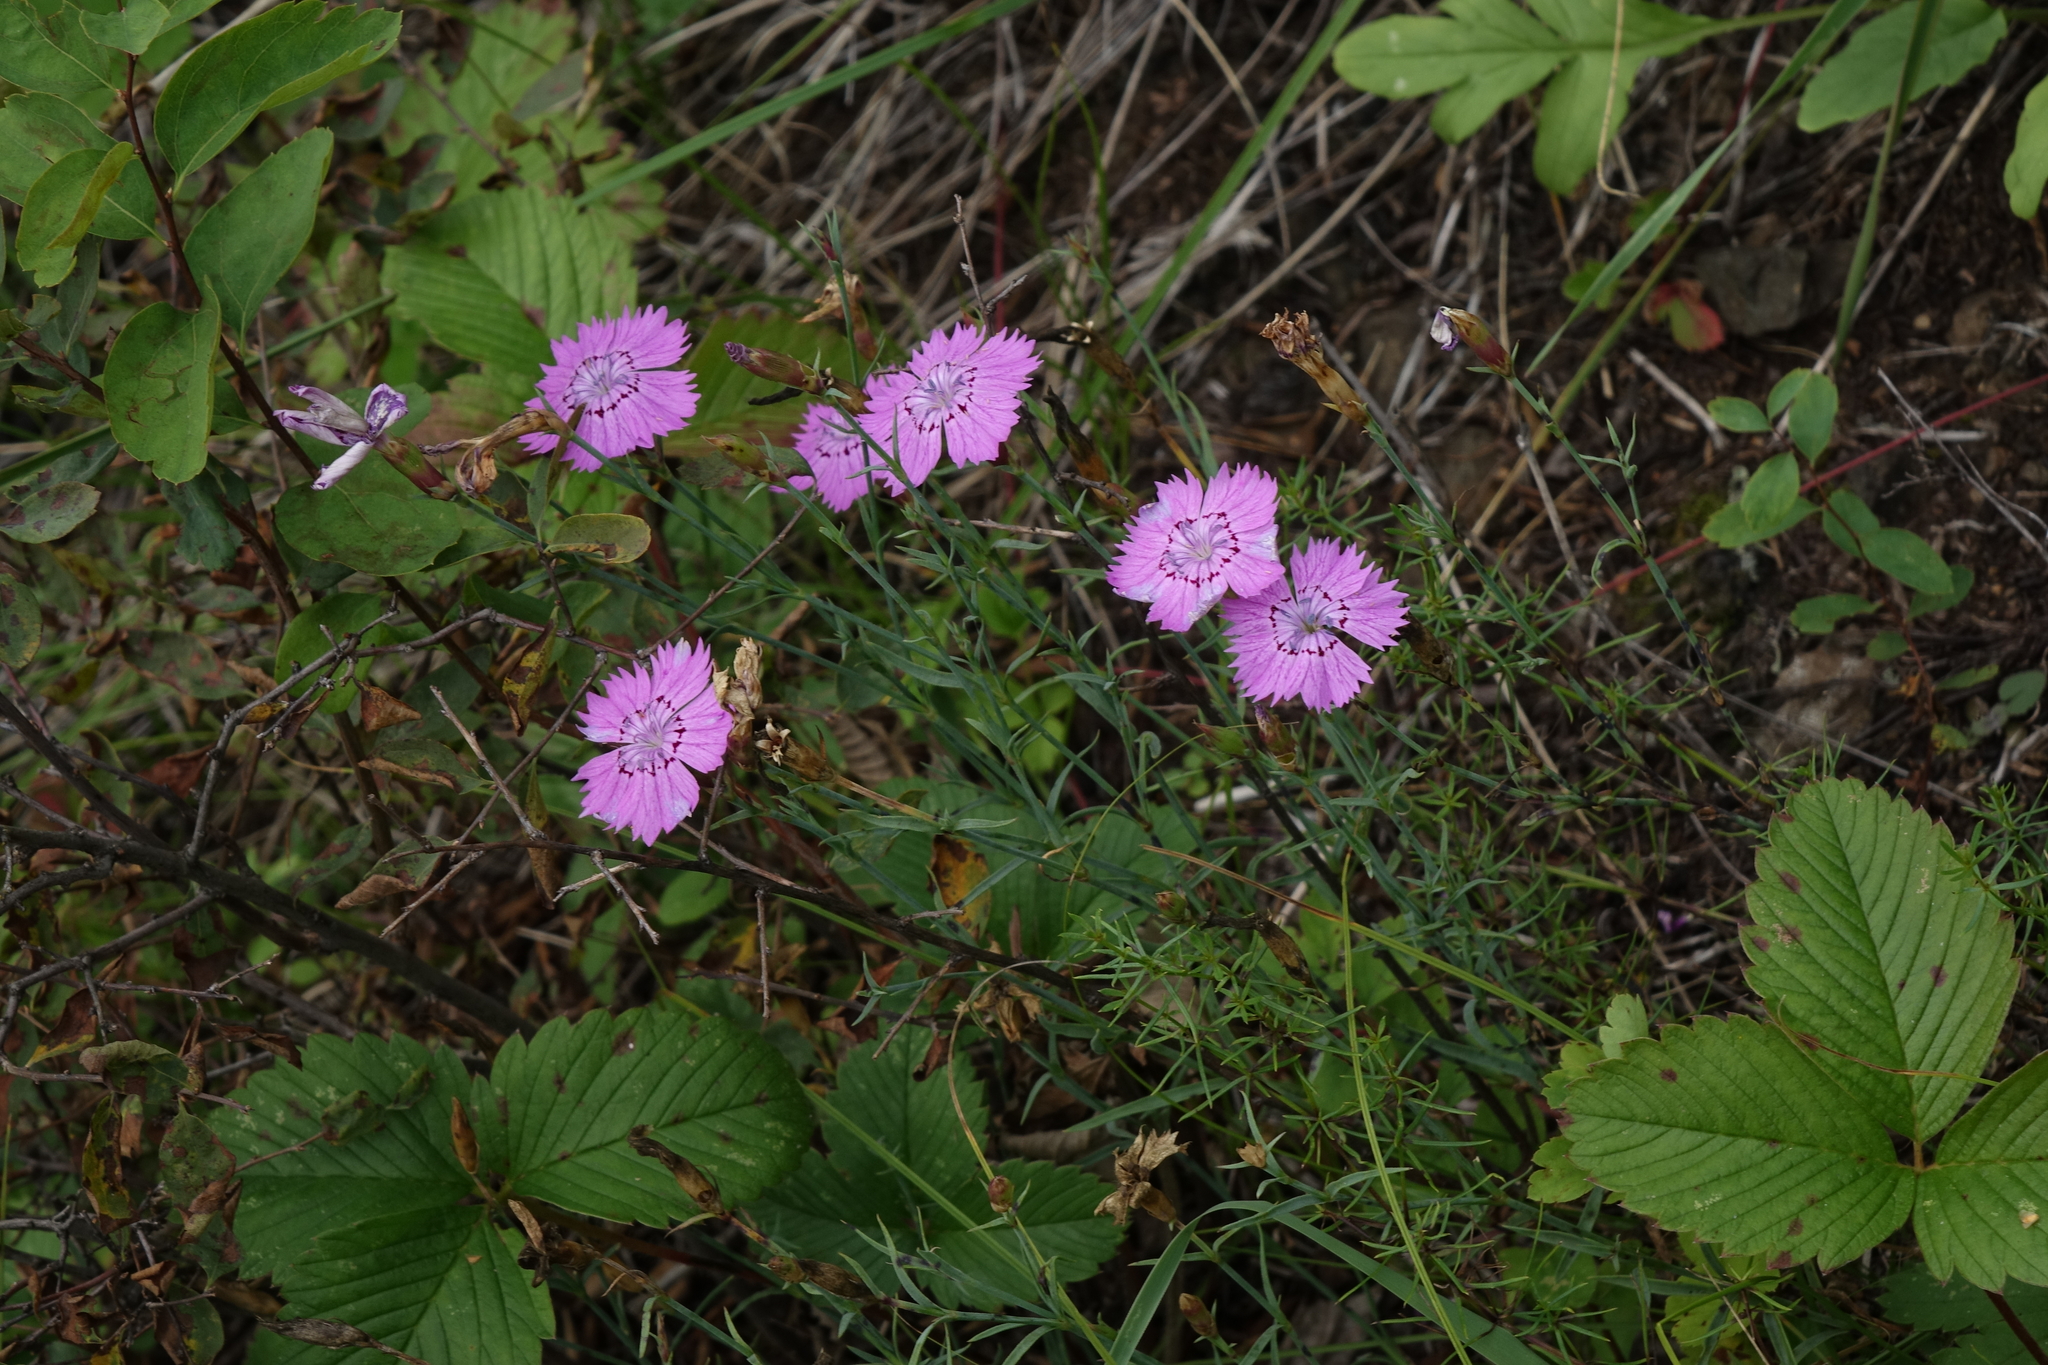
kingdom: Plantae
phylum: Tracheophyta
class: Magnoliopsida
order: Caryophyllales
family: Caryophyllaceae
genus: Dianthus
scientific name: Dianthus chinensis
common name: Rainbow pink
